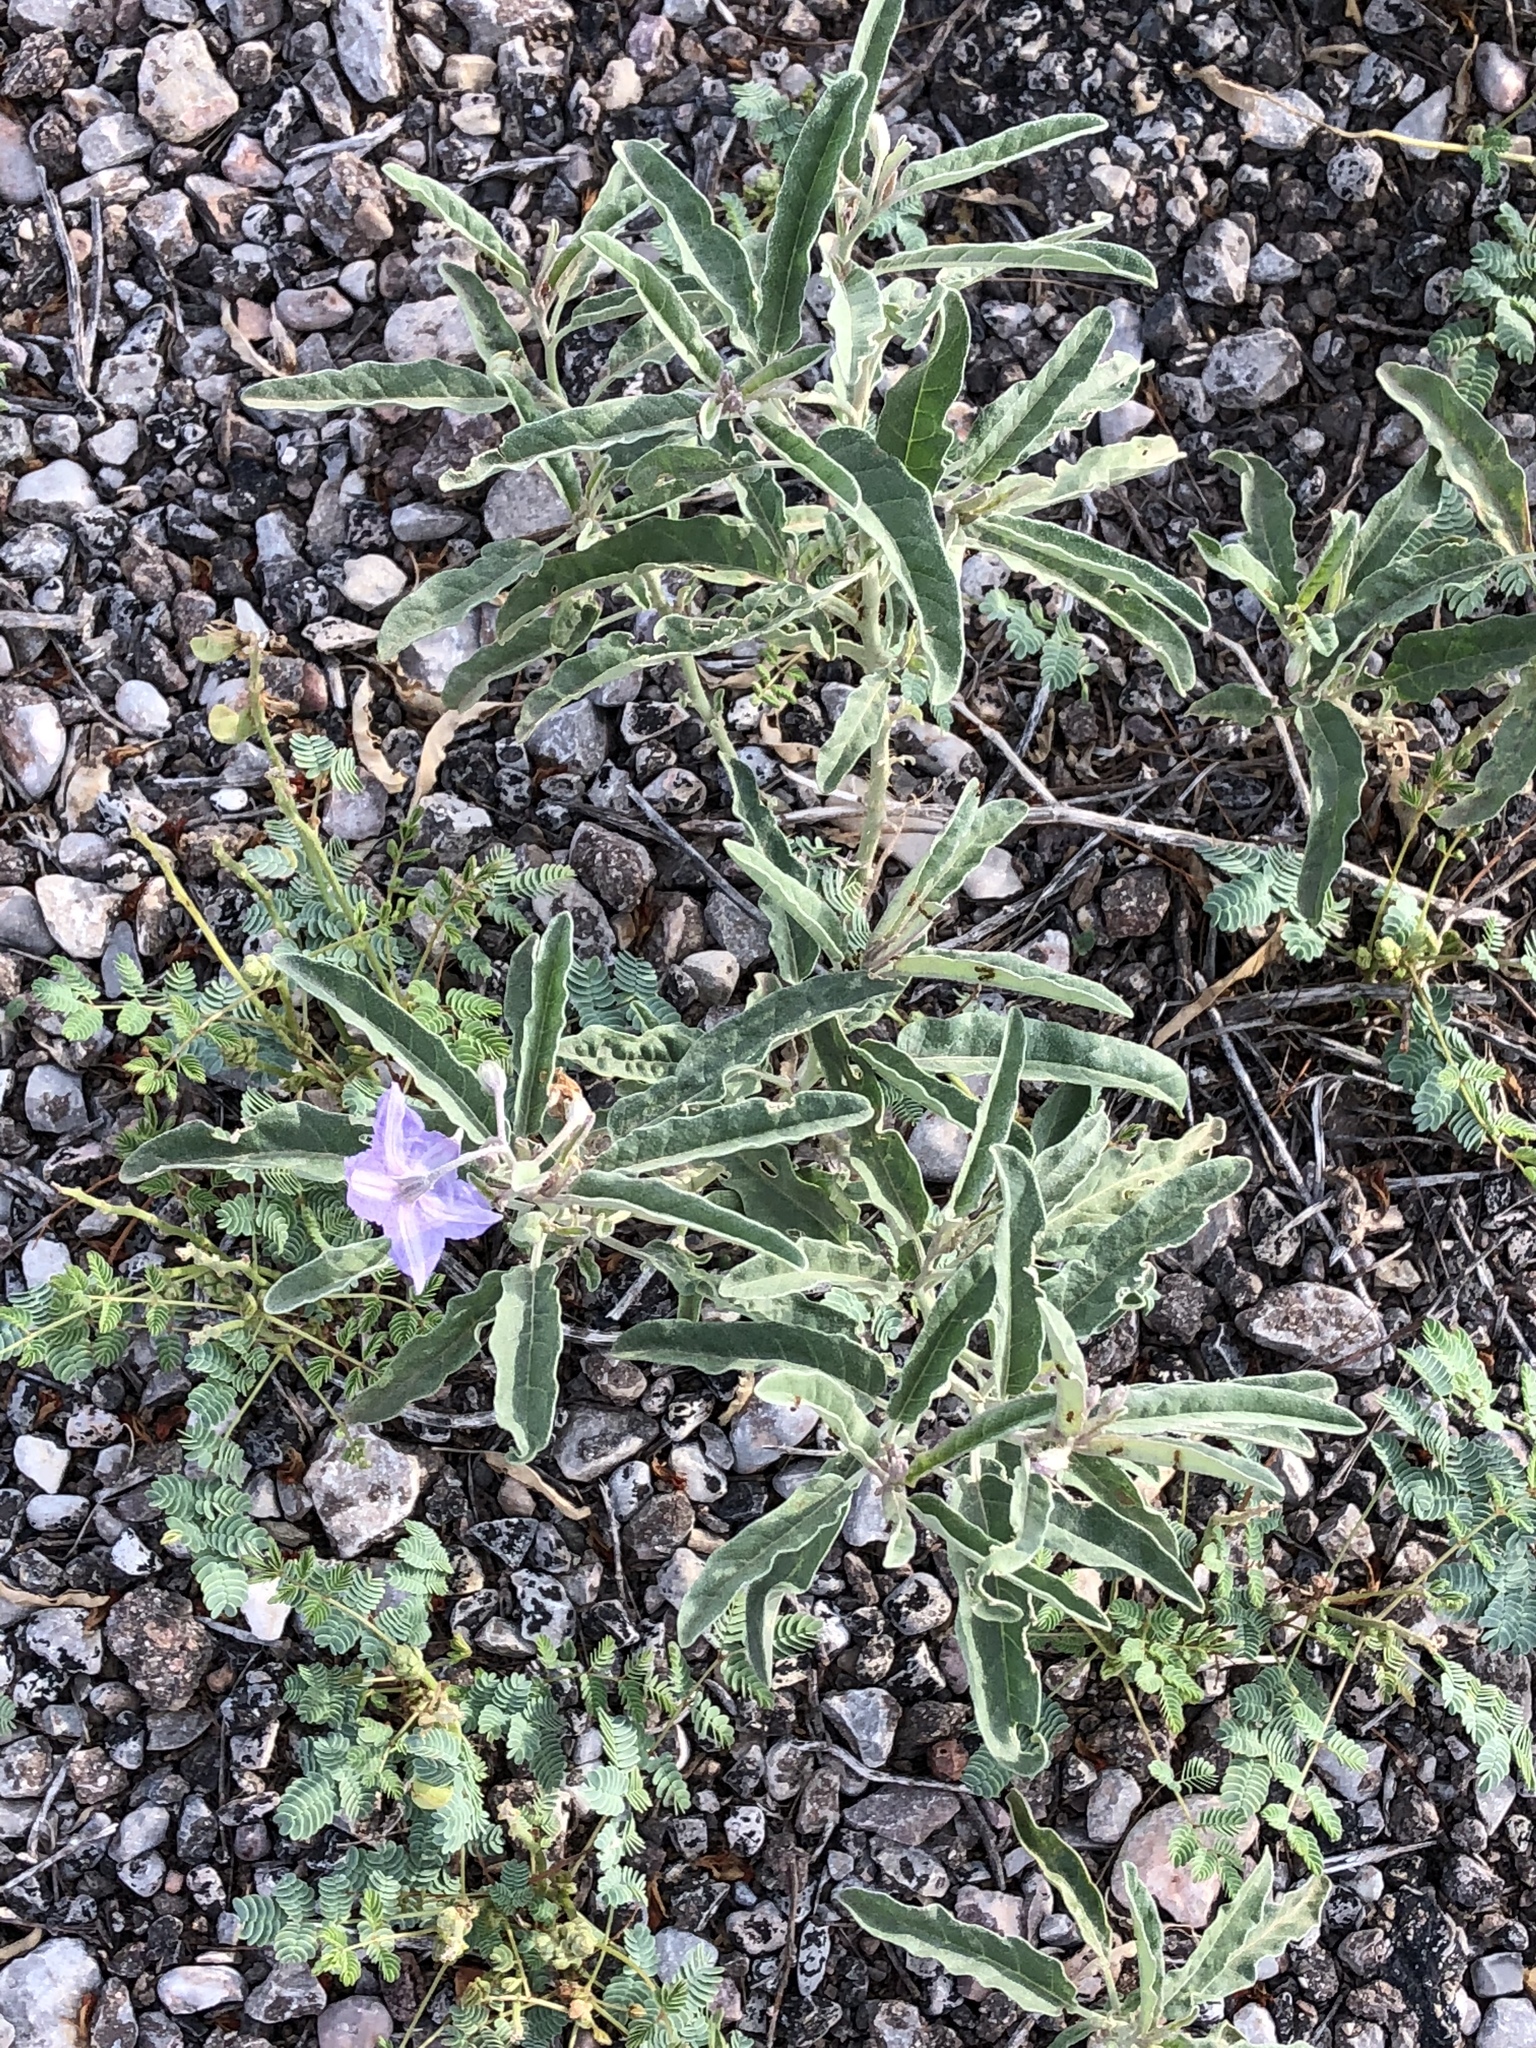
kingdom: Plantae
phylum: Tracheophyta
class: Magnoliopsida
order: Solanales
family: Solanaceae
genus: Solanum
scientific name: Solanum elaeagnifolium
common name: Silverleaf nightshade
